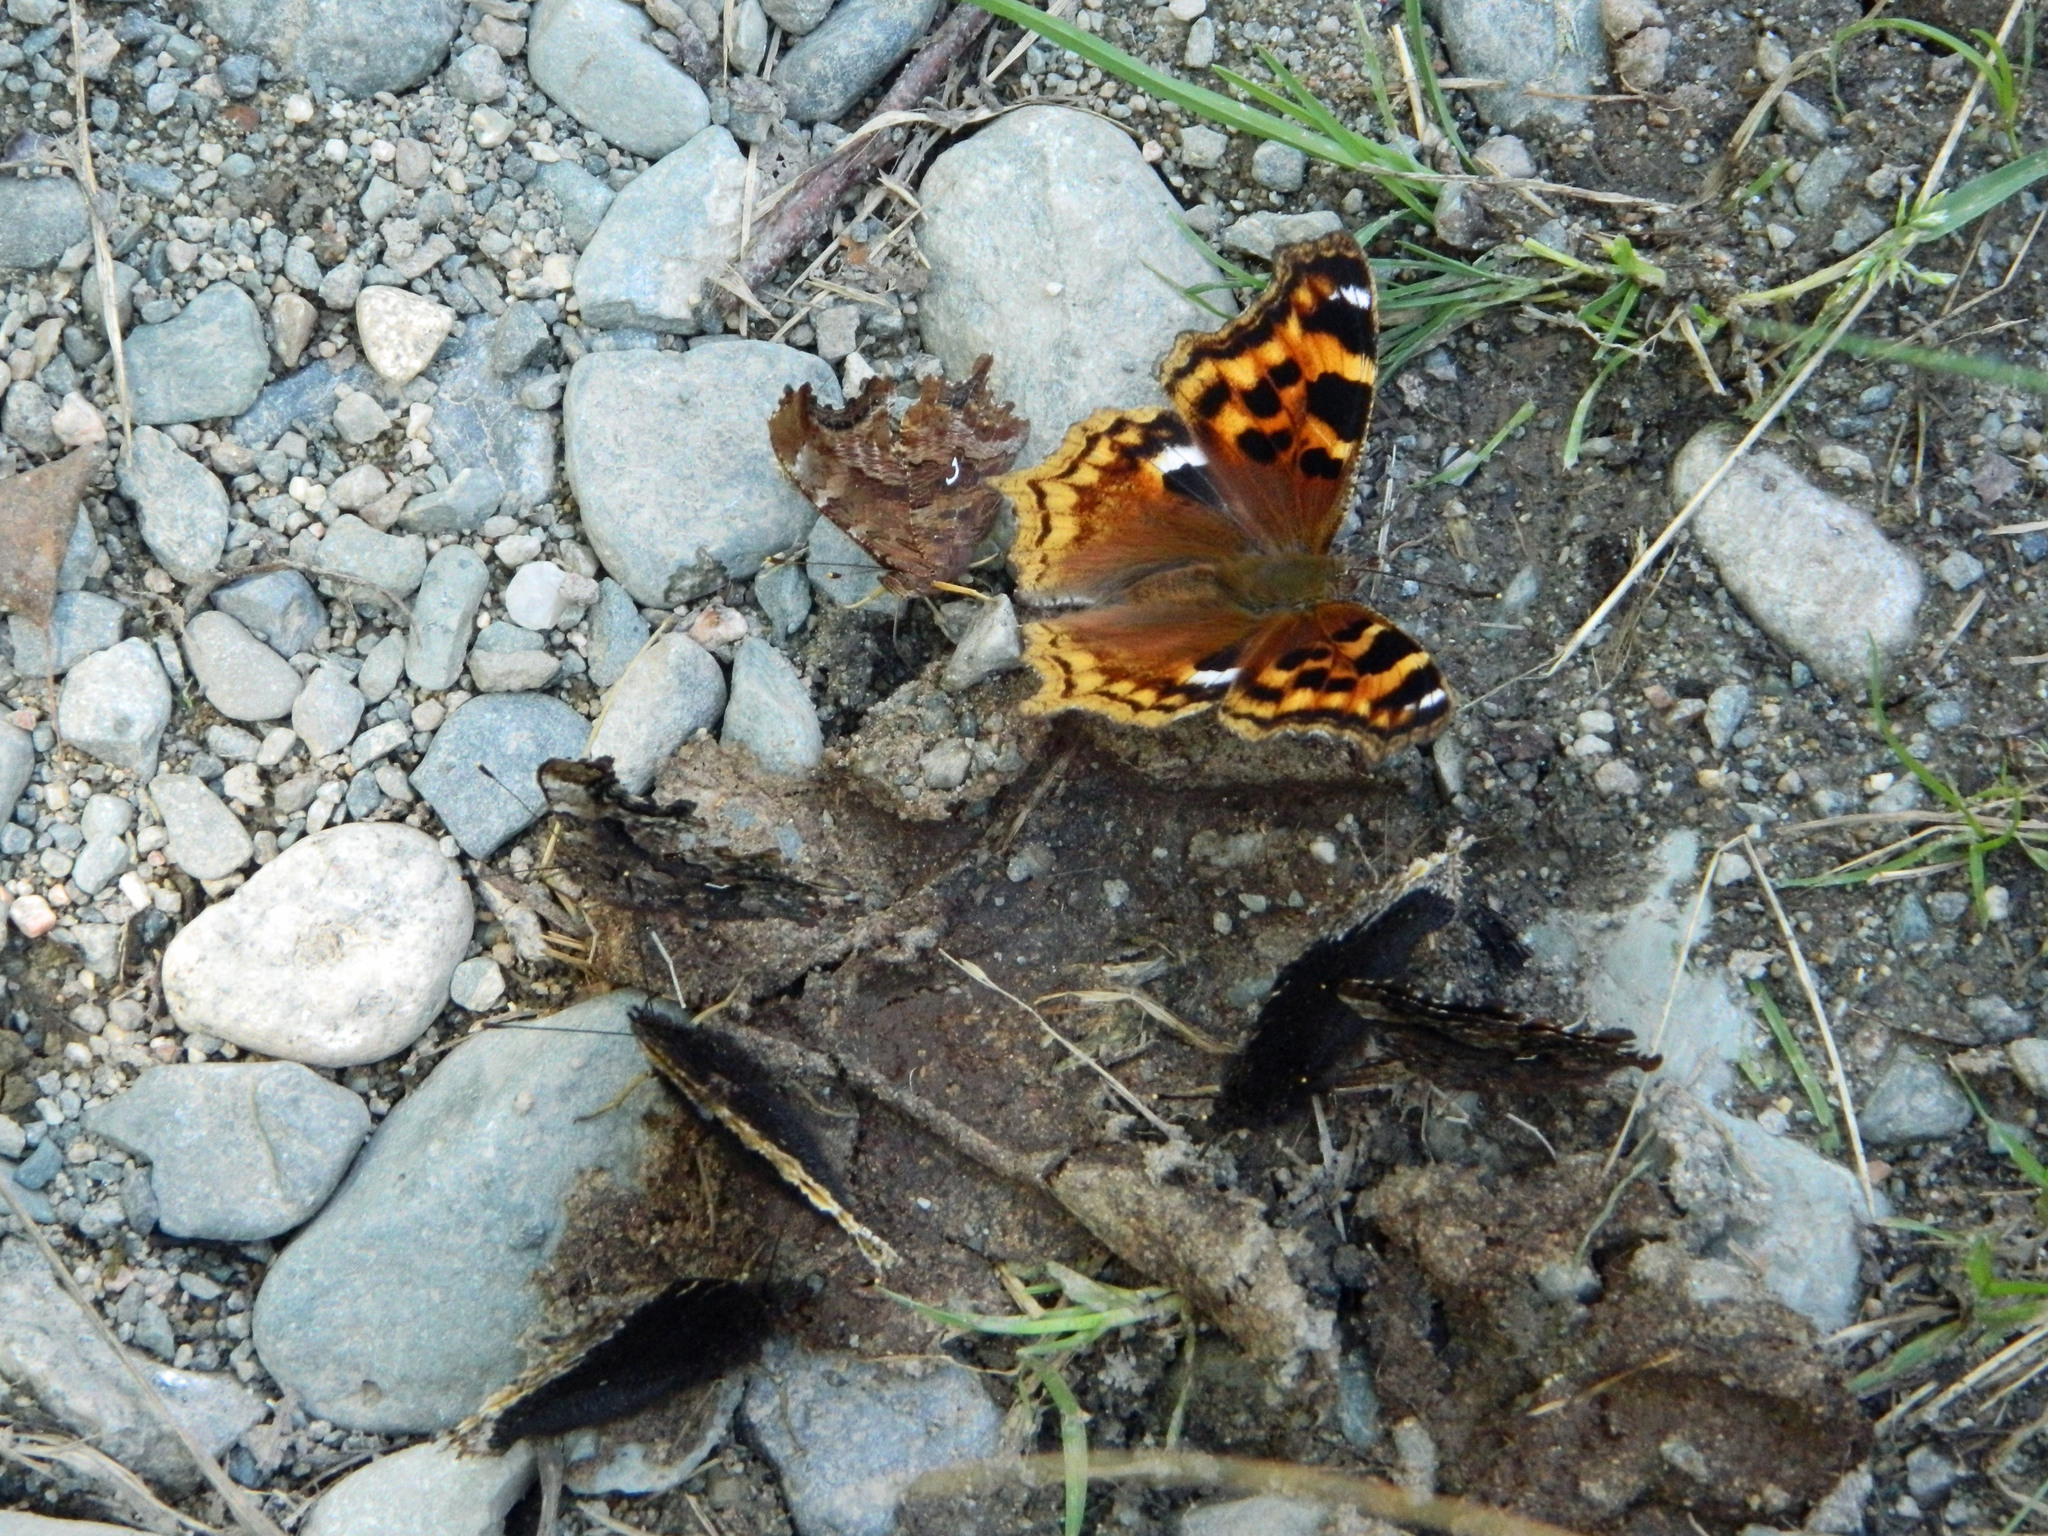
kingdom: Animalia
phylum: Arthropoda
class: Insecta
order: Lepidoptera
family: Nymphalidae
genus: Polygonia
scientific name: Polygonia vaualbum
